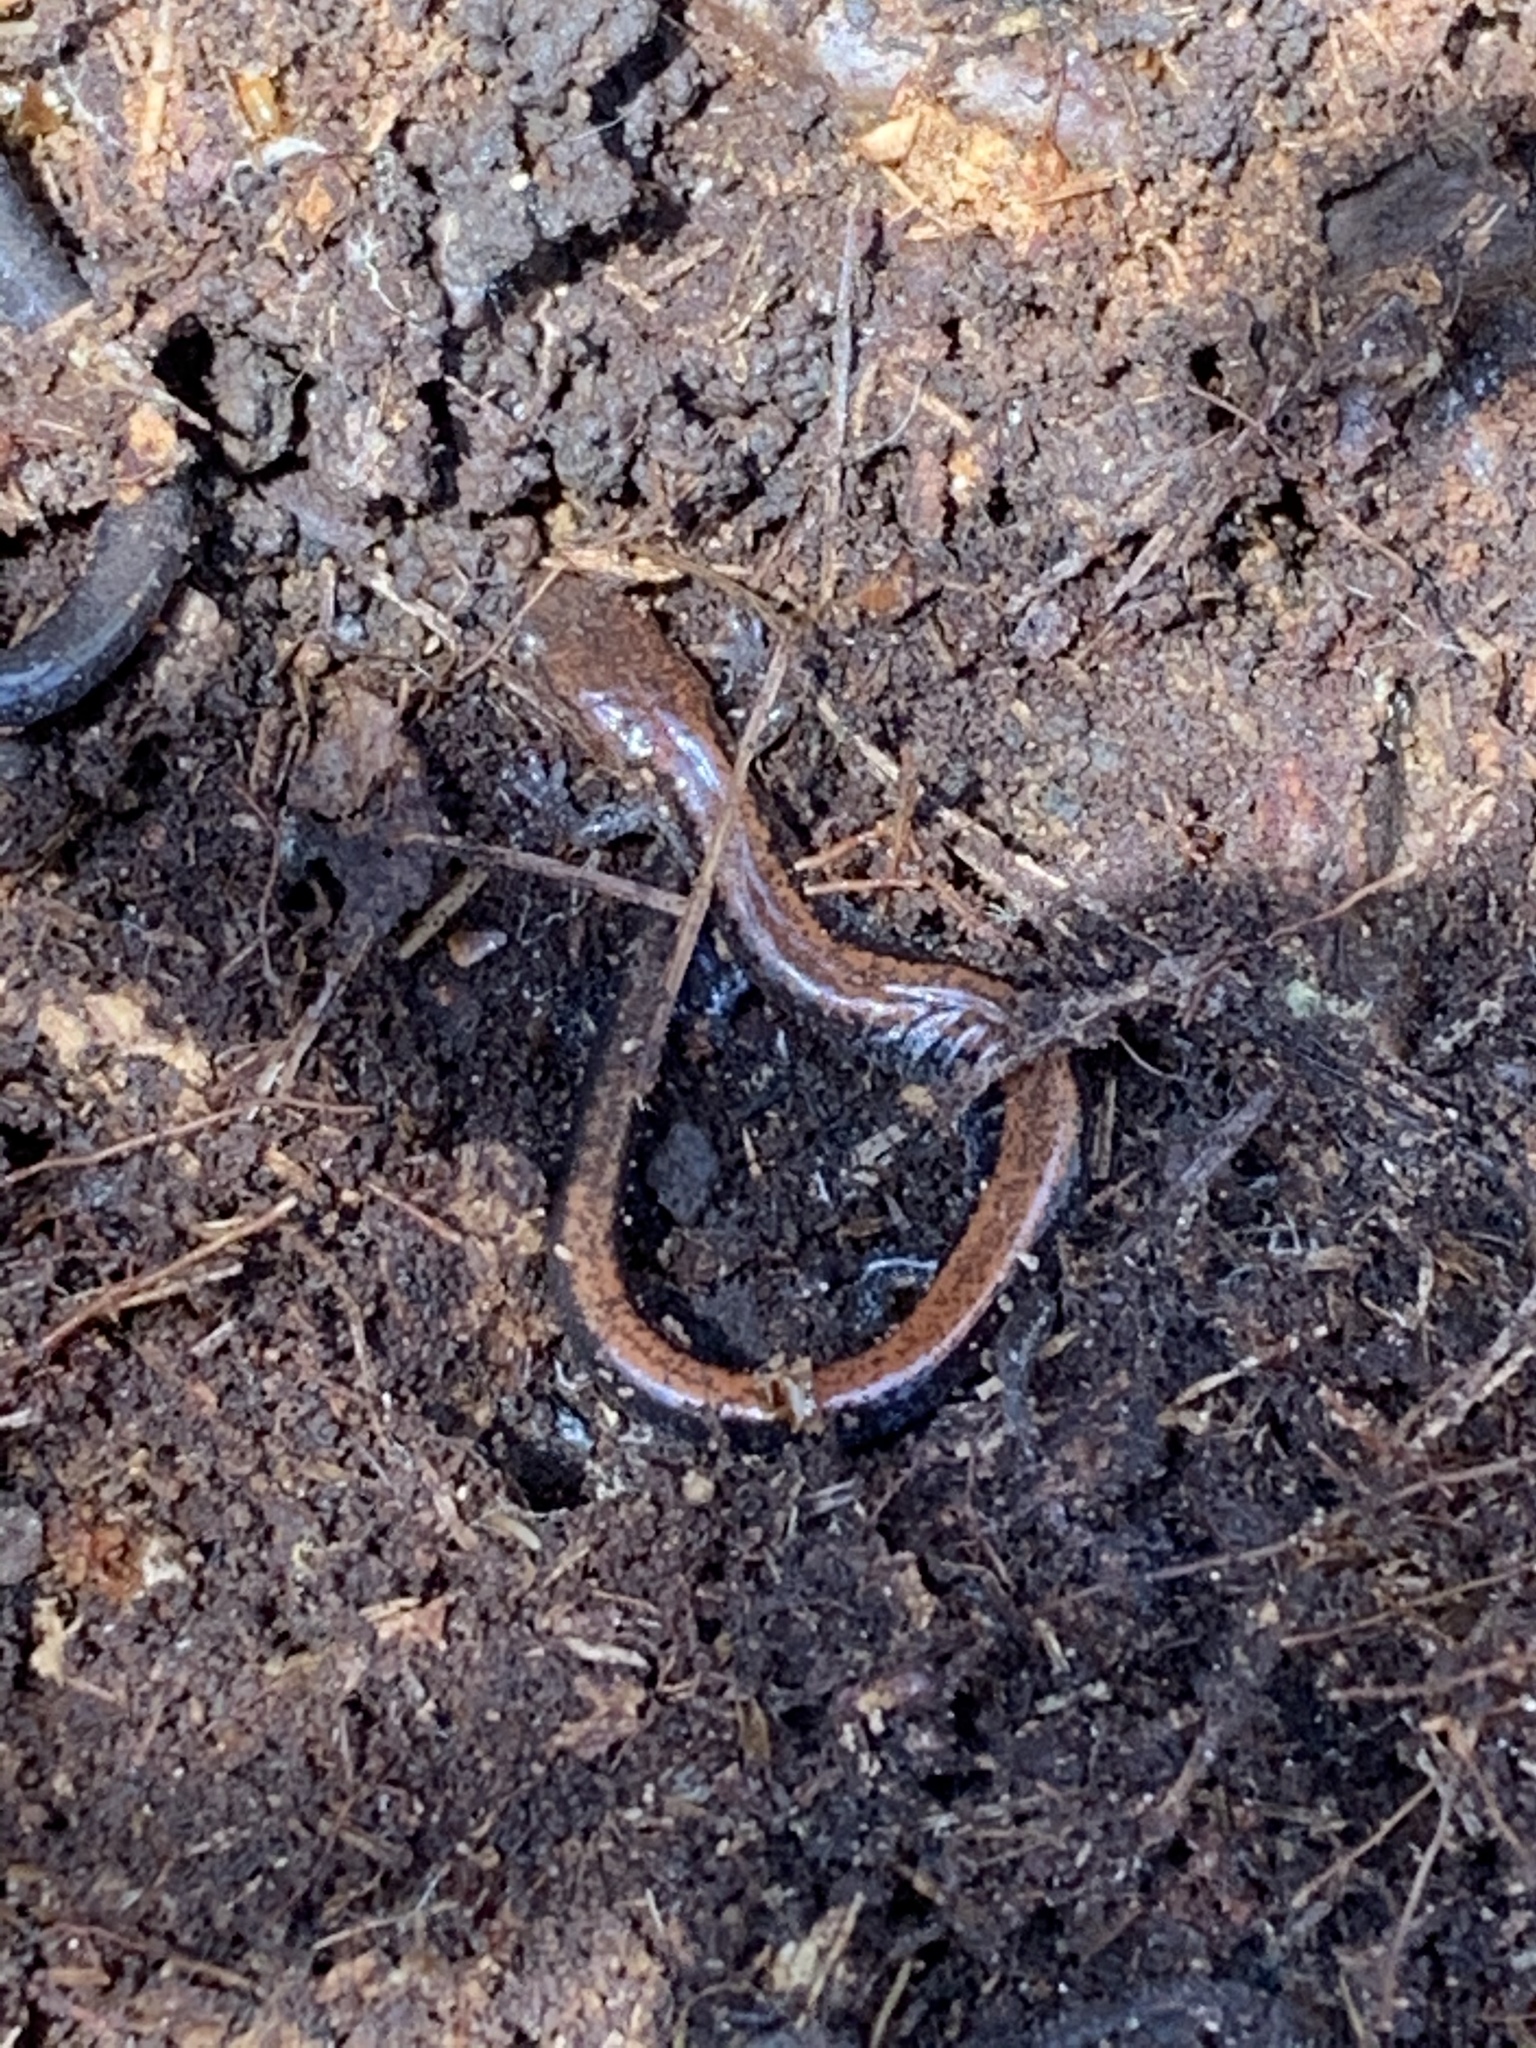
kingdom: Animalia
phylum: Chordata
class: Amphibia
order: Caudata
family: Plethodontidae
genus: Plethodon
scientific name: Plethodon cinereus
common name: Redback salamander
